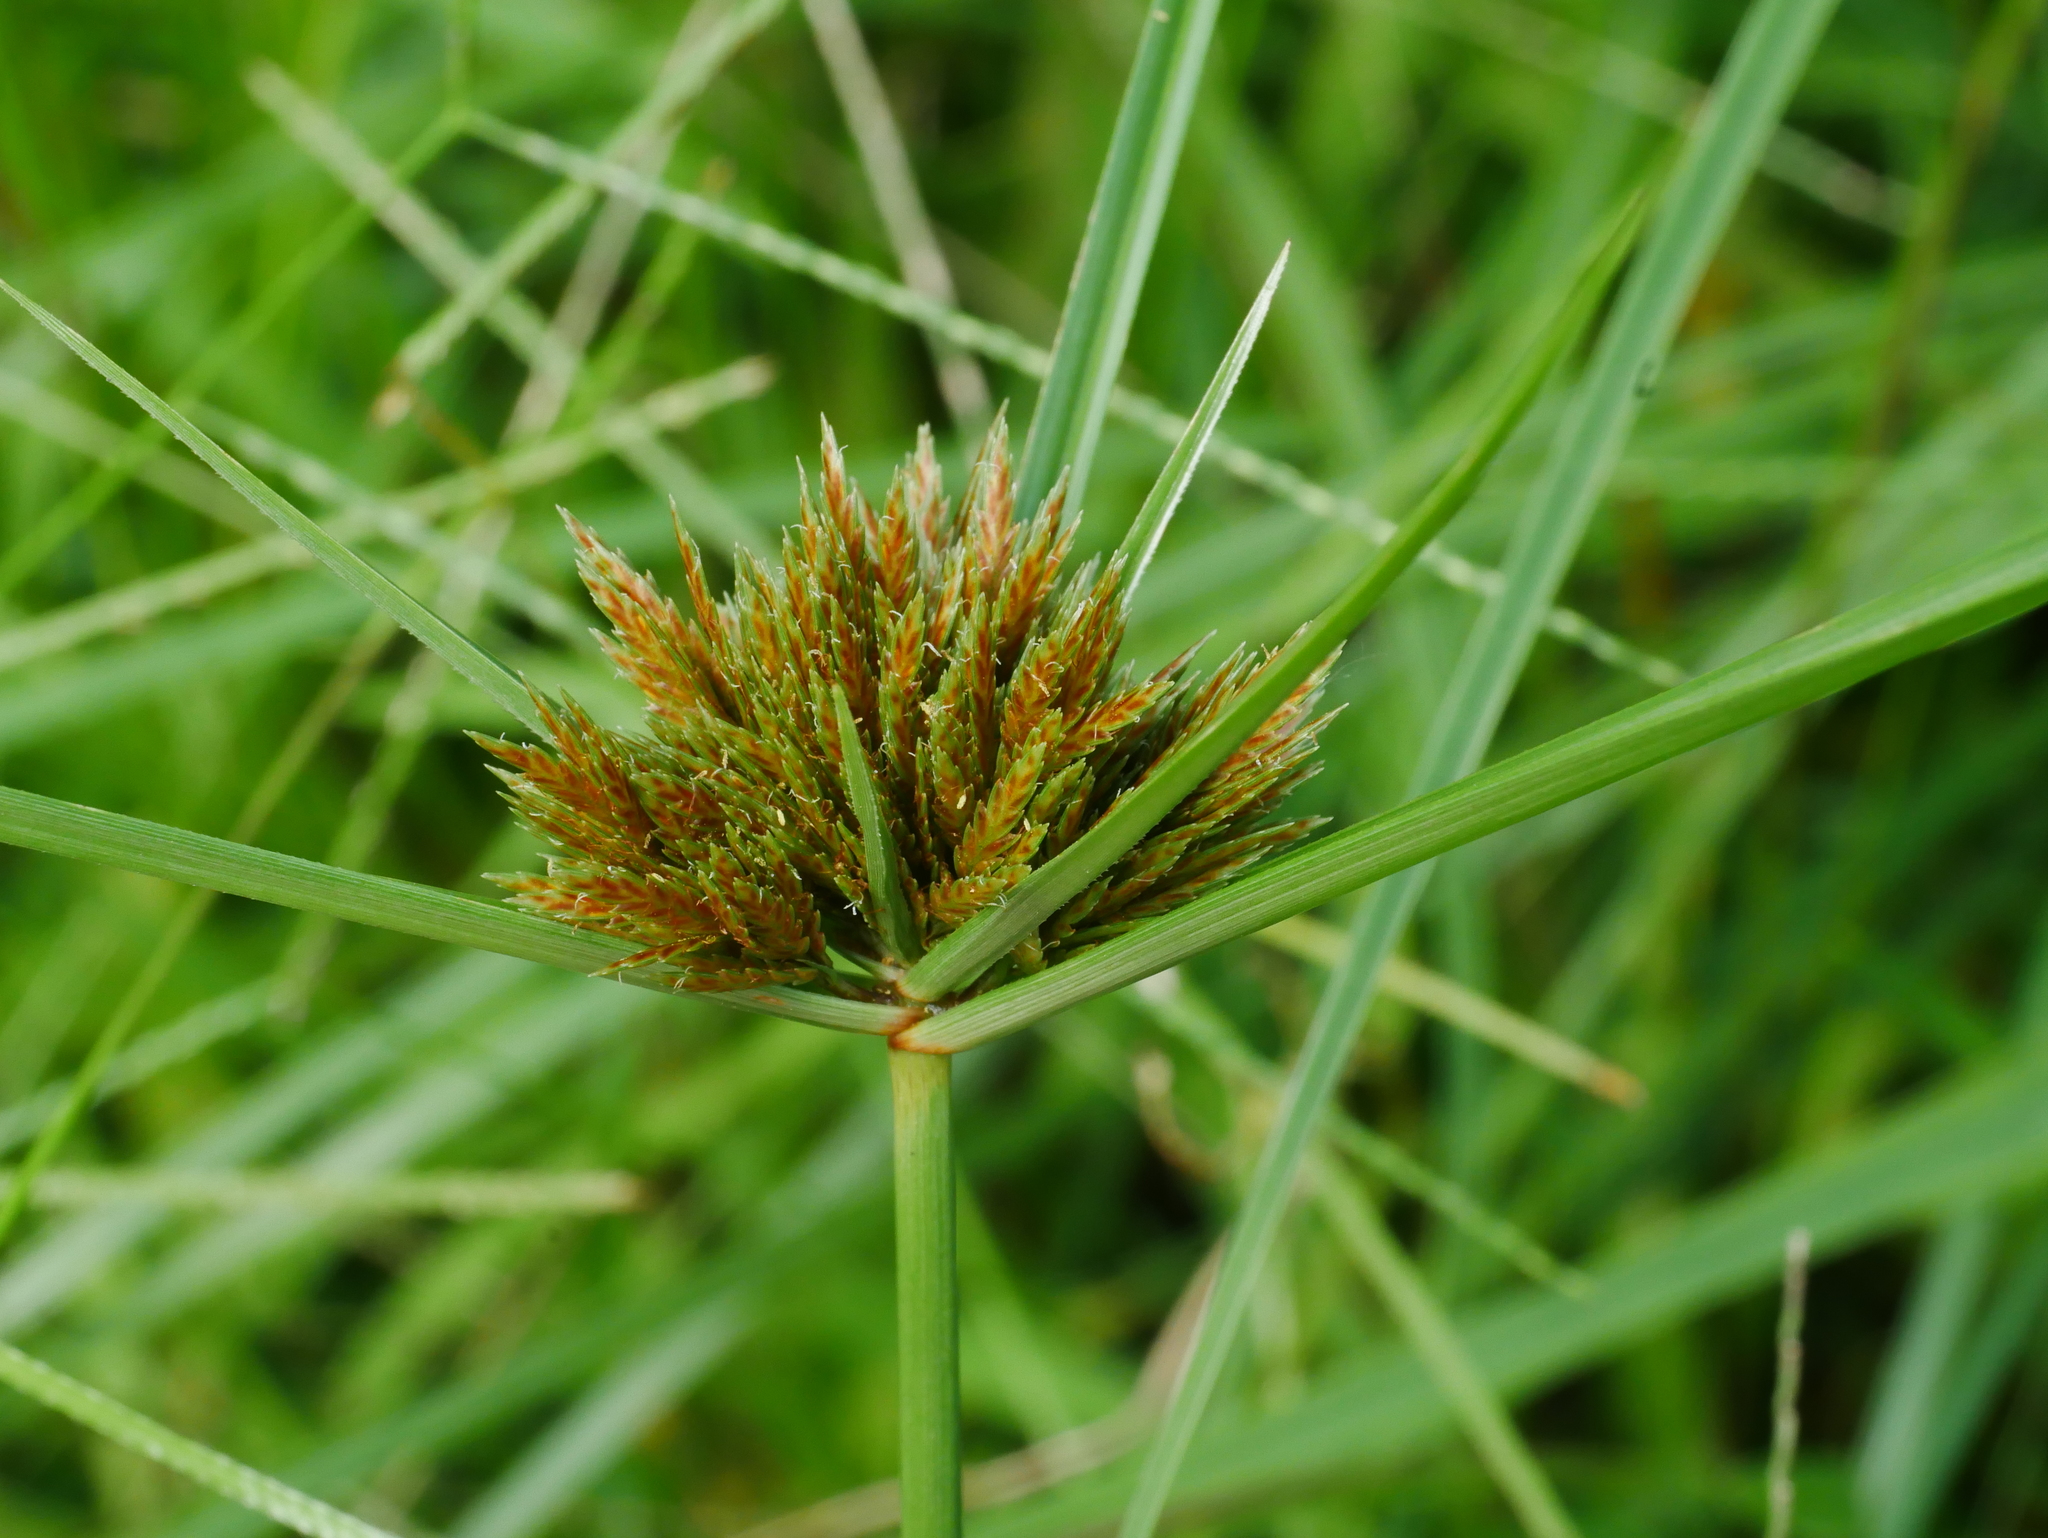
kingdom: Plantae
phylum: Tracheophyta
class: Liliopsida
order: Poales
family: Cyperaceae
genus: Cyperus
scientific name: Cyperus polystachyos
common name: Bunchy flat sedge
